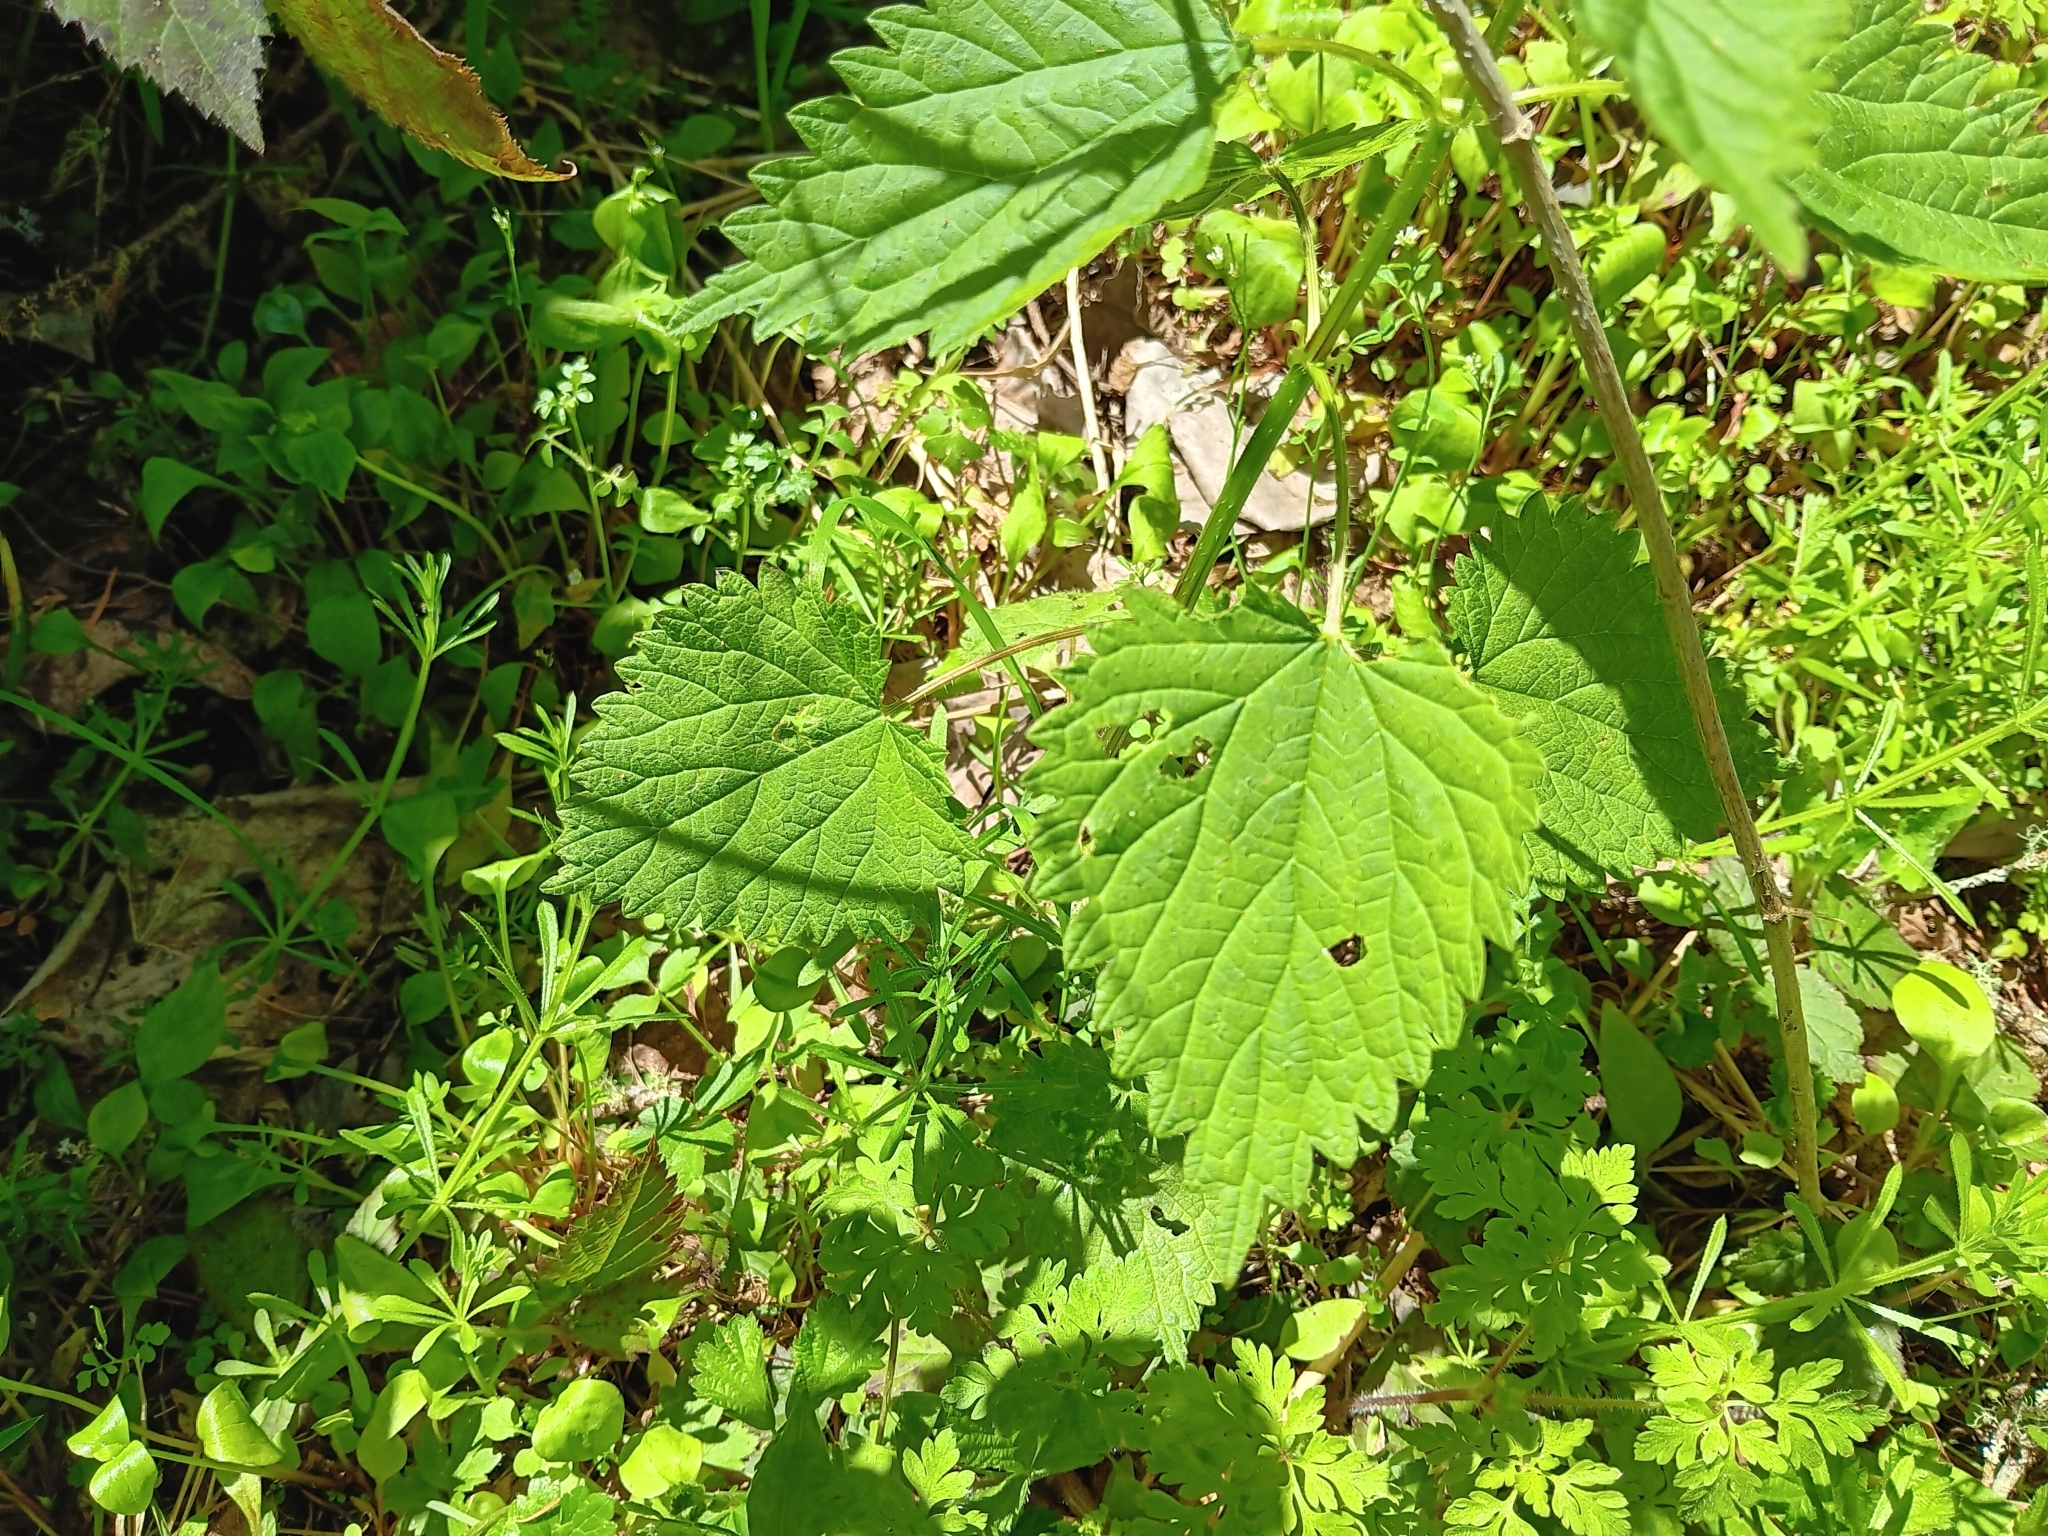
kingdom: Plantae
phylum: Tracheophyta
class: Magnoliopsida
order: Rosales
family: Urticaceae
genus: Urtica
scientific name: Urtica dioica
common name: Common nettle
